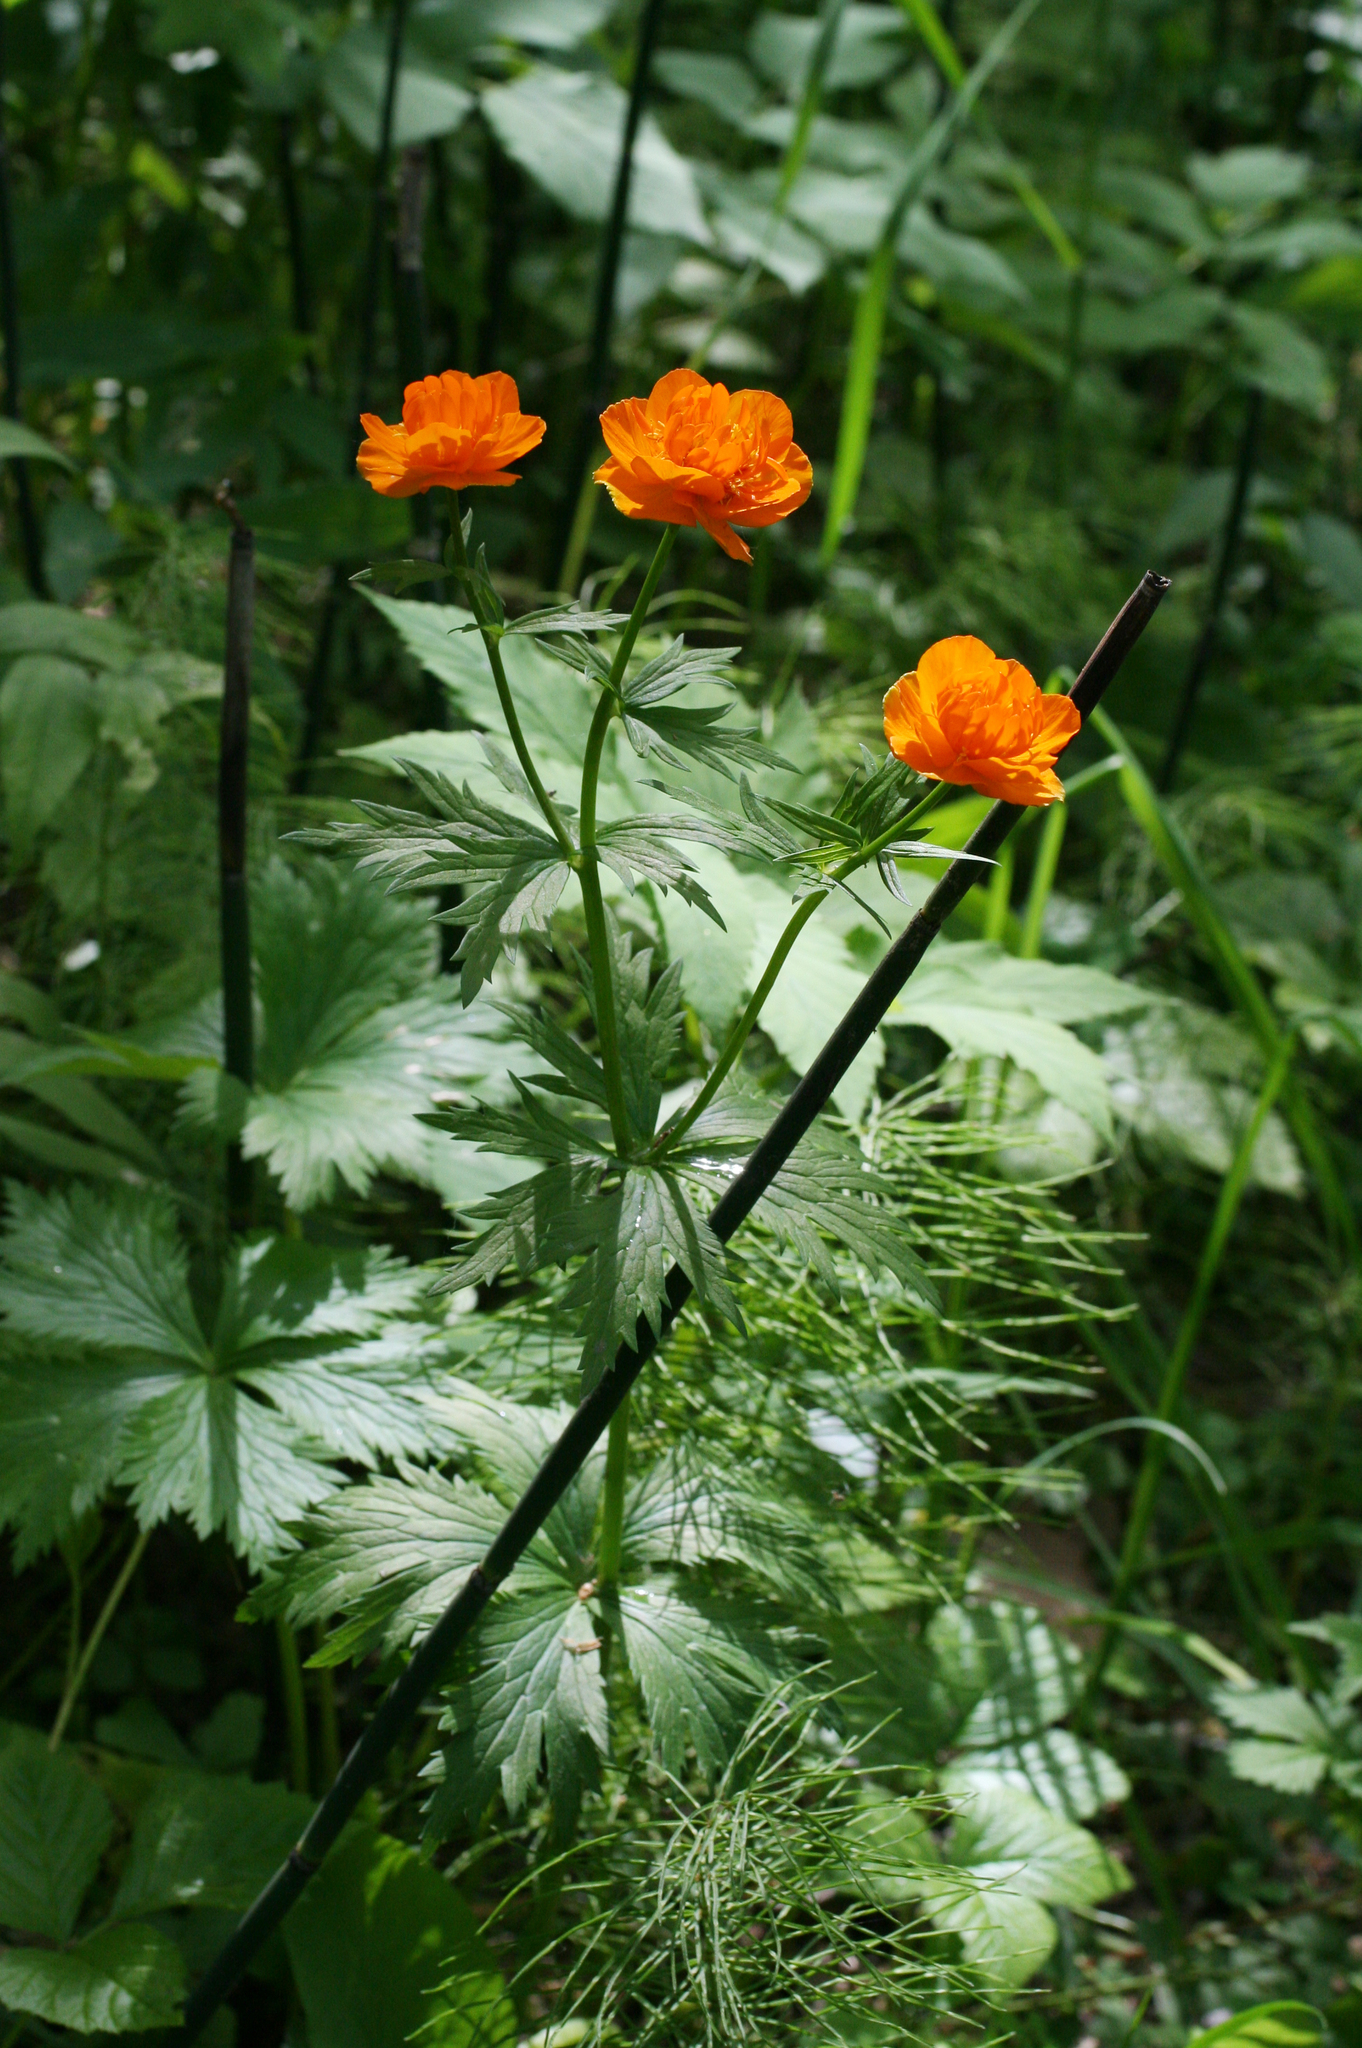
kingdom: Plantae
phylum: Tracheophyta
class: Magnoliopsida
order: Ranunculales
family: Ranunculaceae
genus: Trollius
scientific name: Trollius asiaticus
